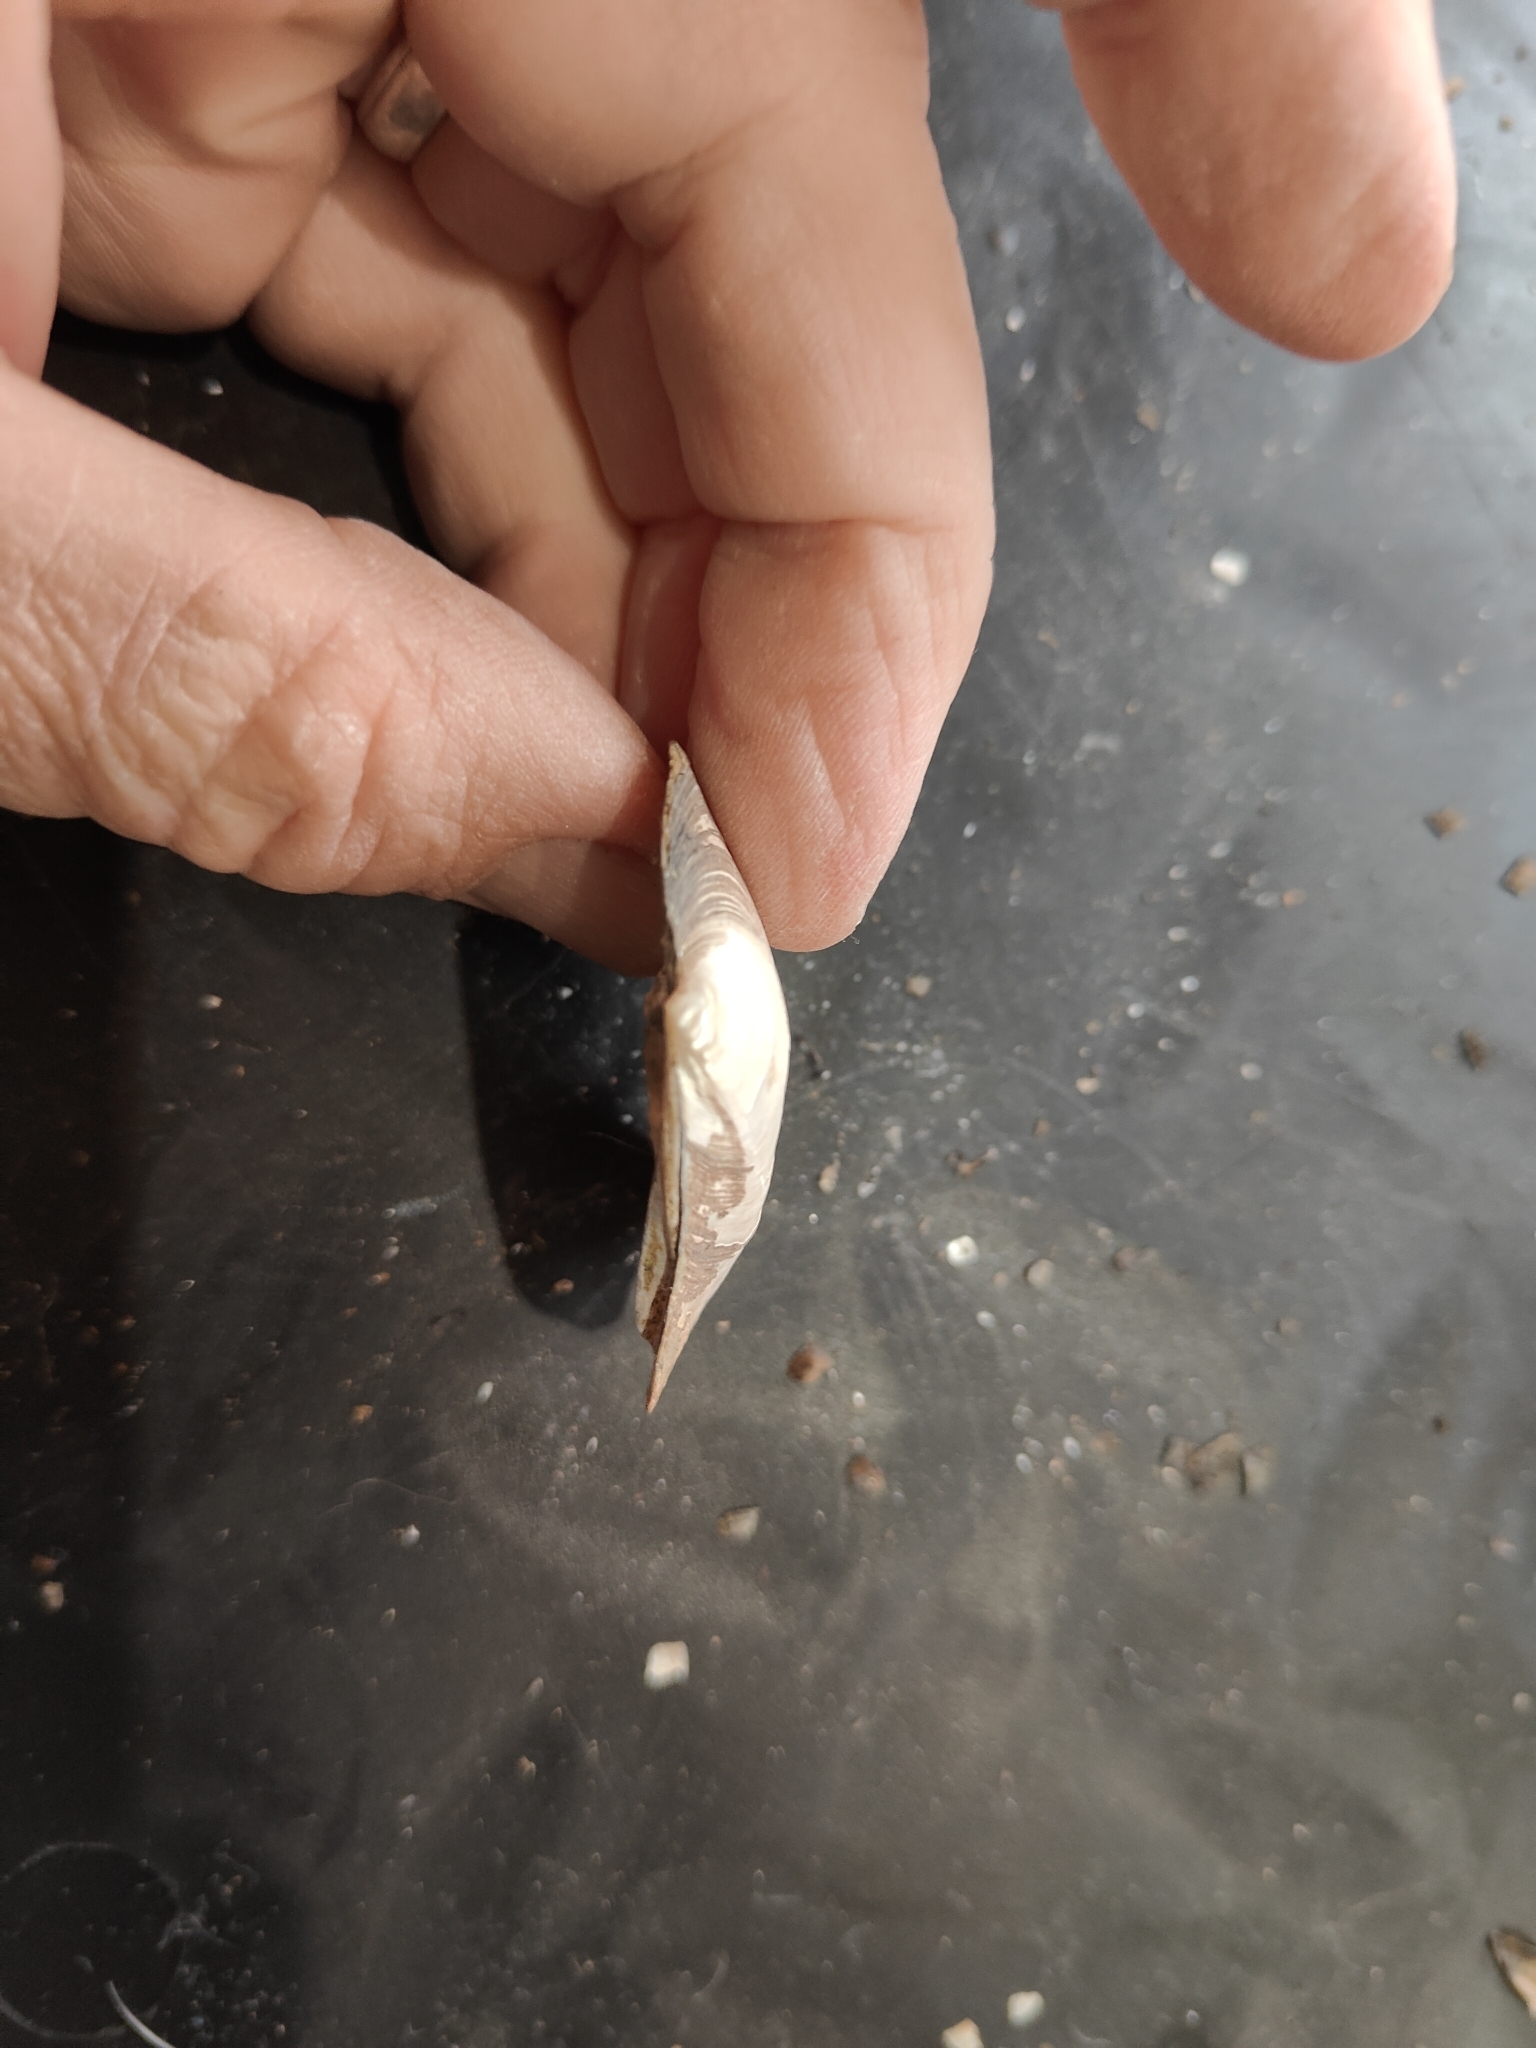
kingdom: Animalia
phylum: Mollusca
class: Bivalvia
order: Unionida
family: Unionidae
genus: Amblema
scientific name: Amblema plicata
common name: Threeridge
